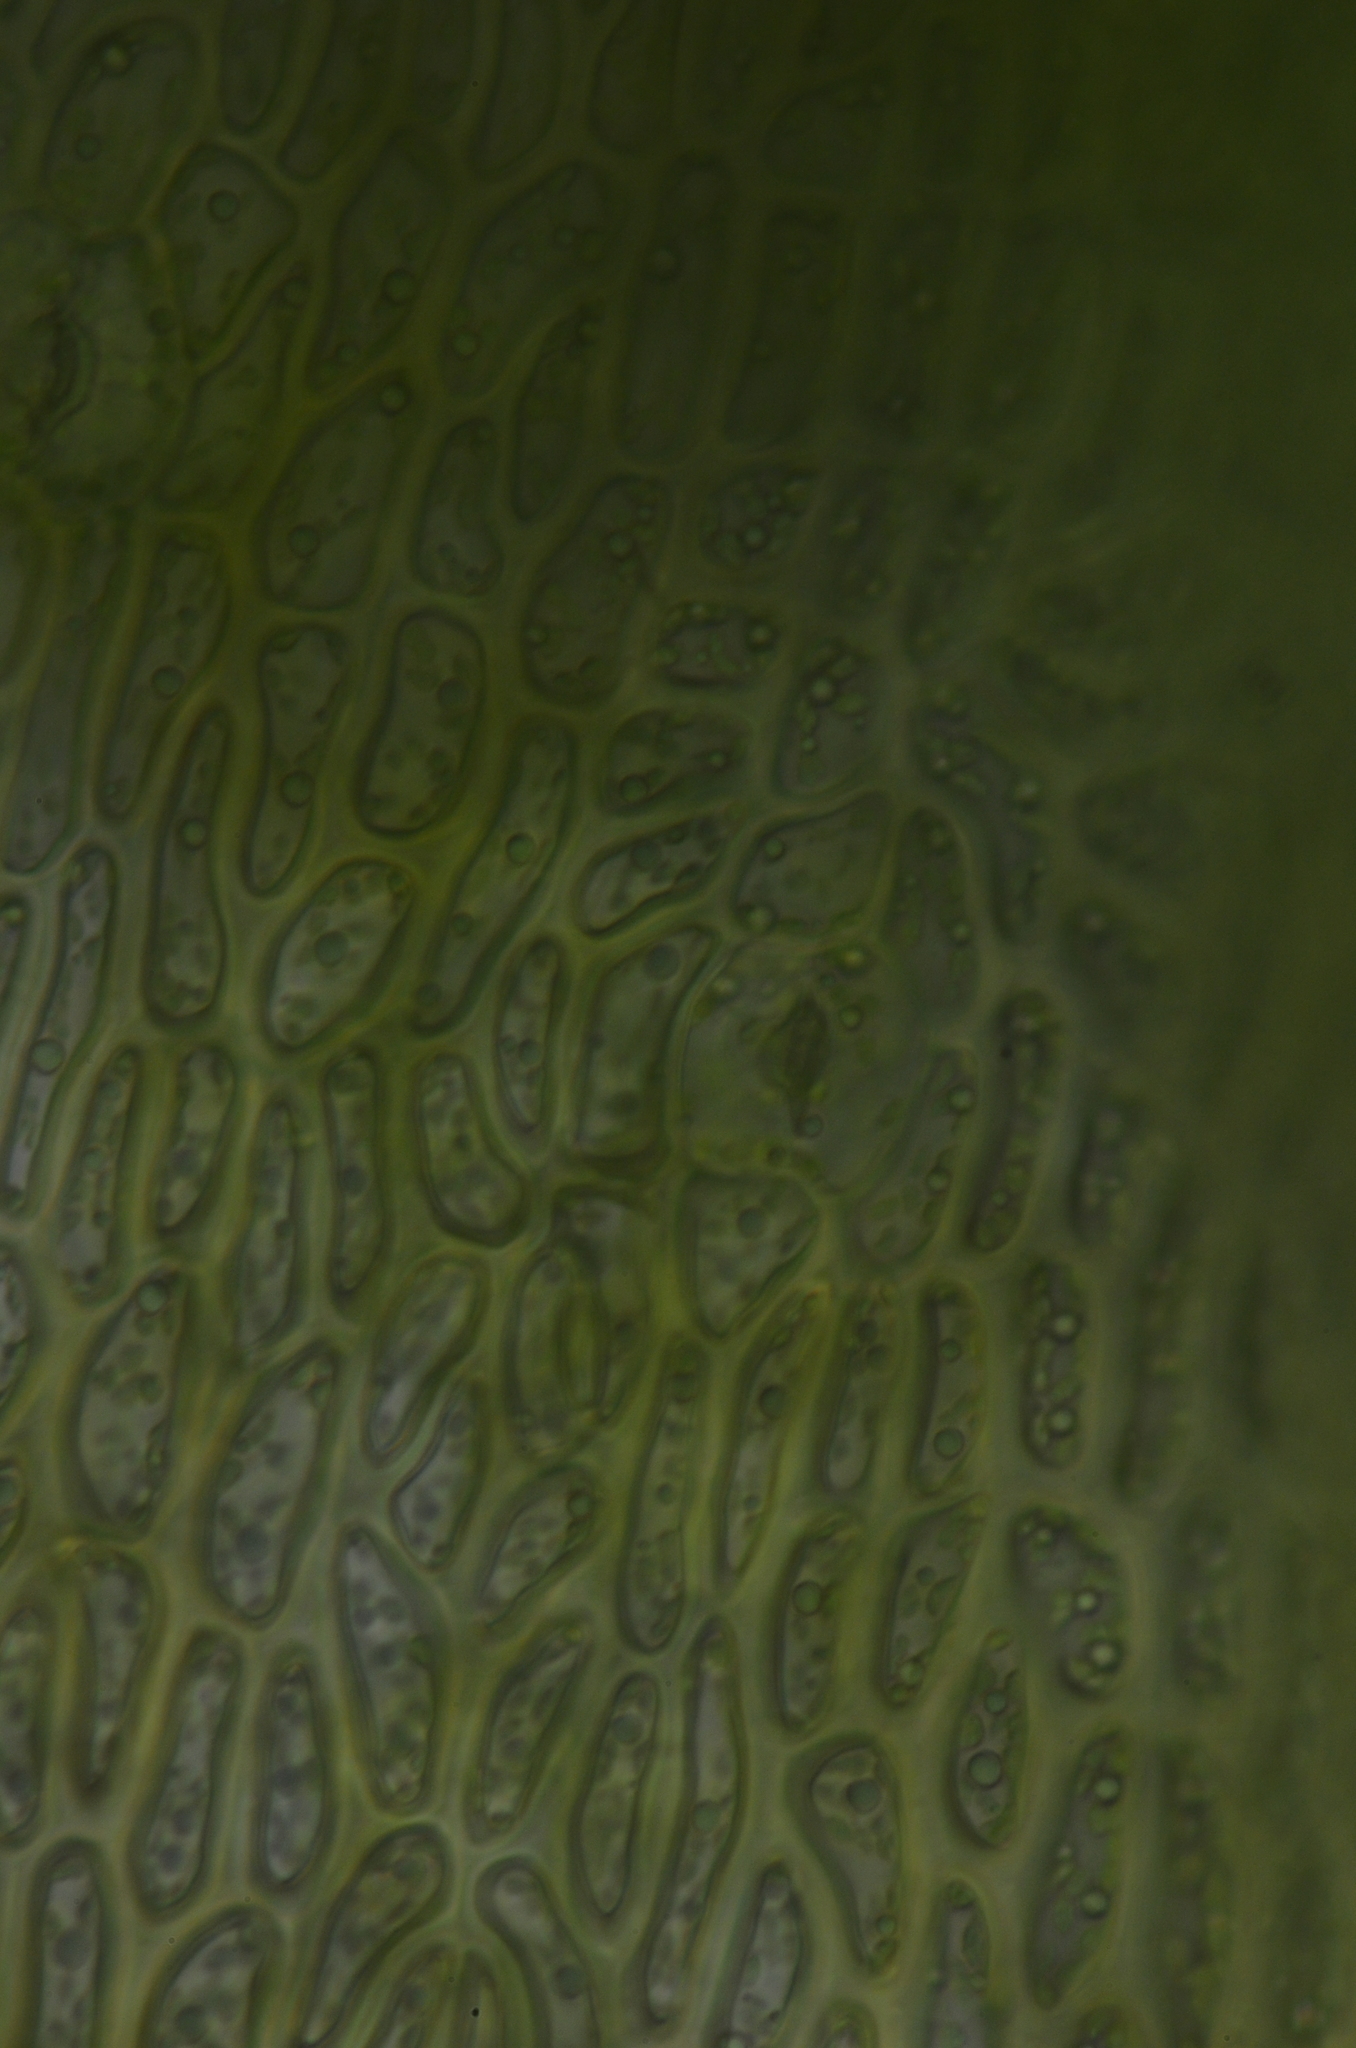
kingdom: Plantae
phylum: Bryophyta
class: Bryopsida
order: Dicranales
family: Bruchiaceae
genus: Trematodon
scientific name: Trematodon asanoi
